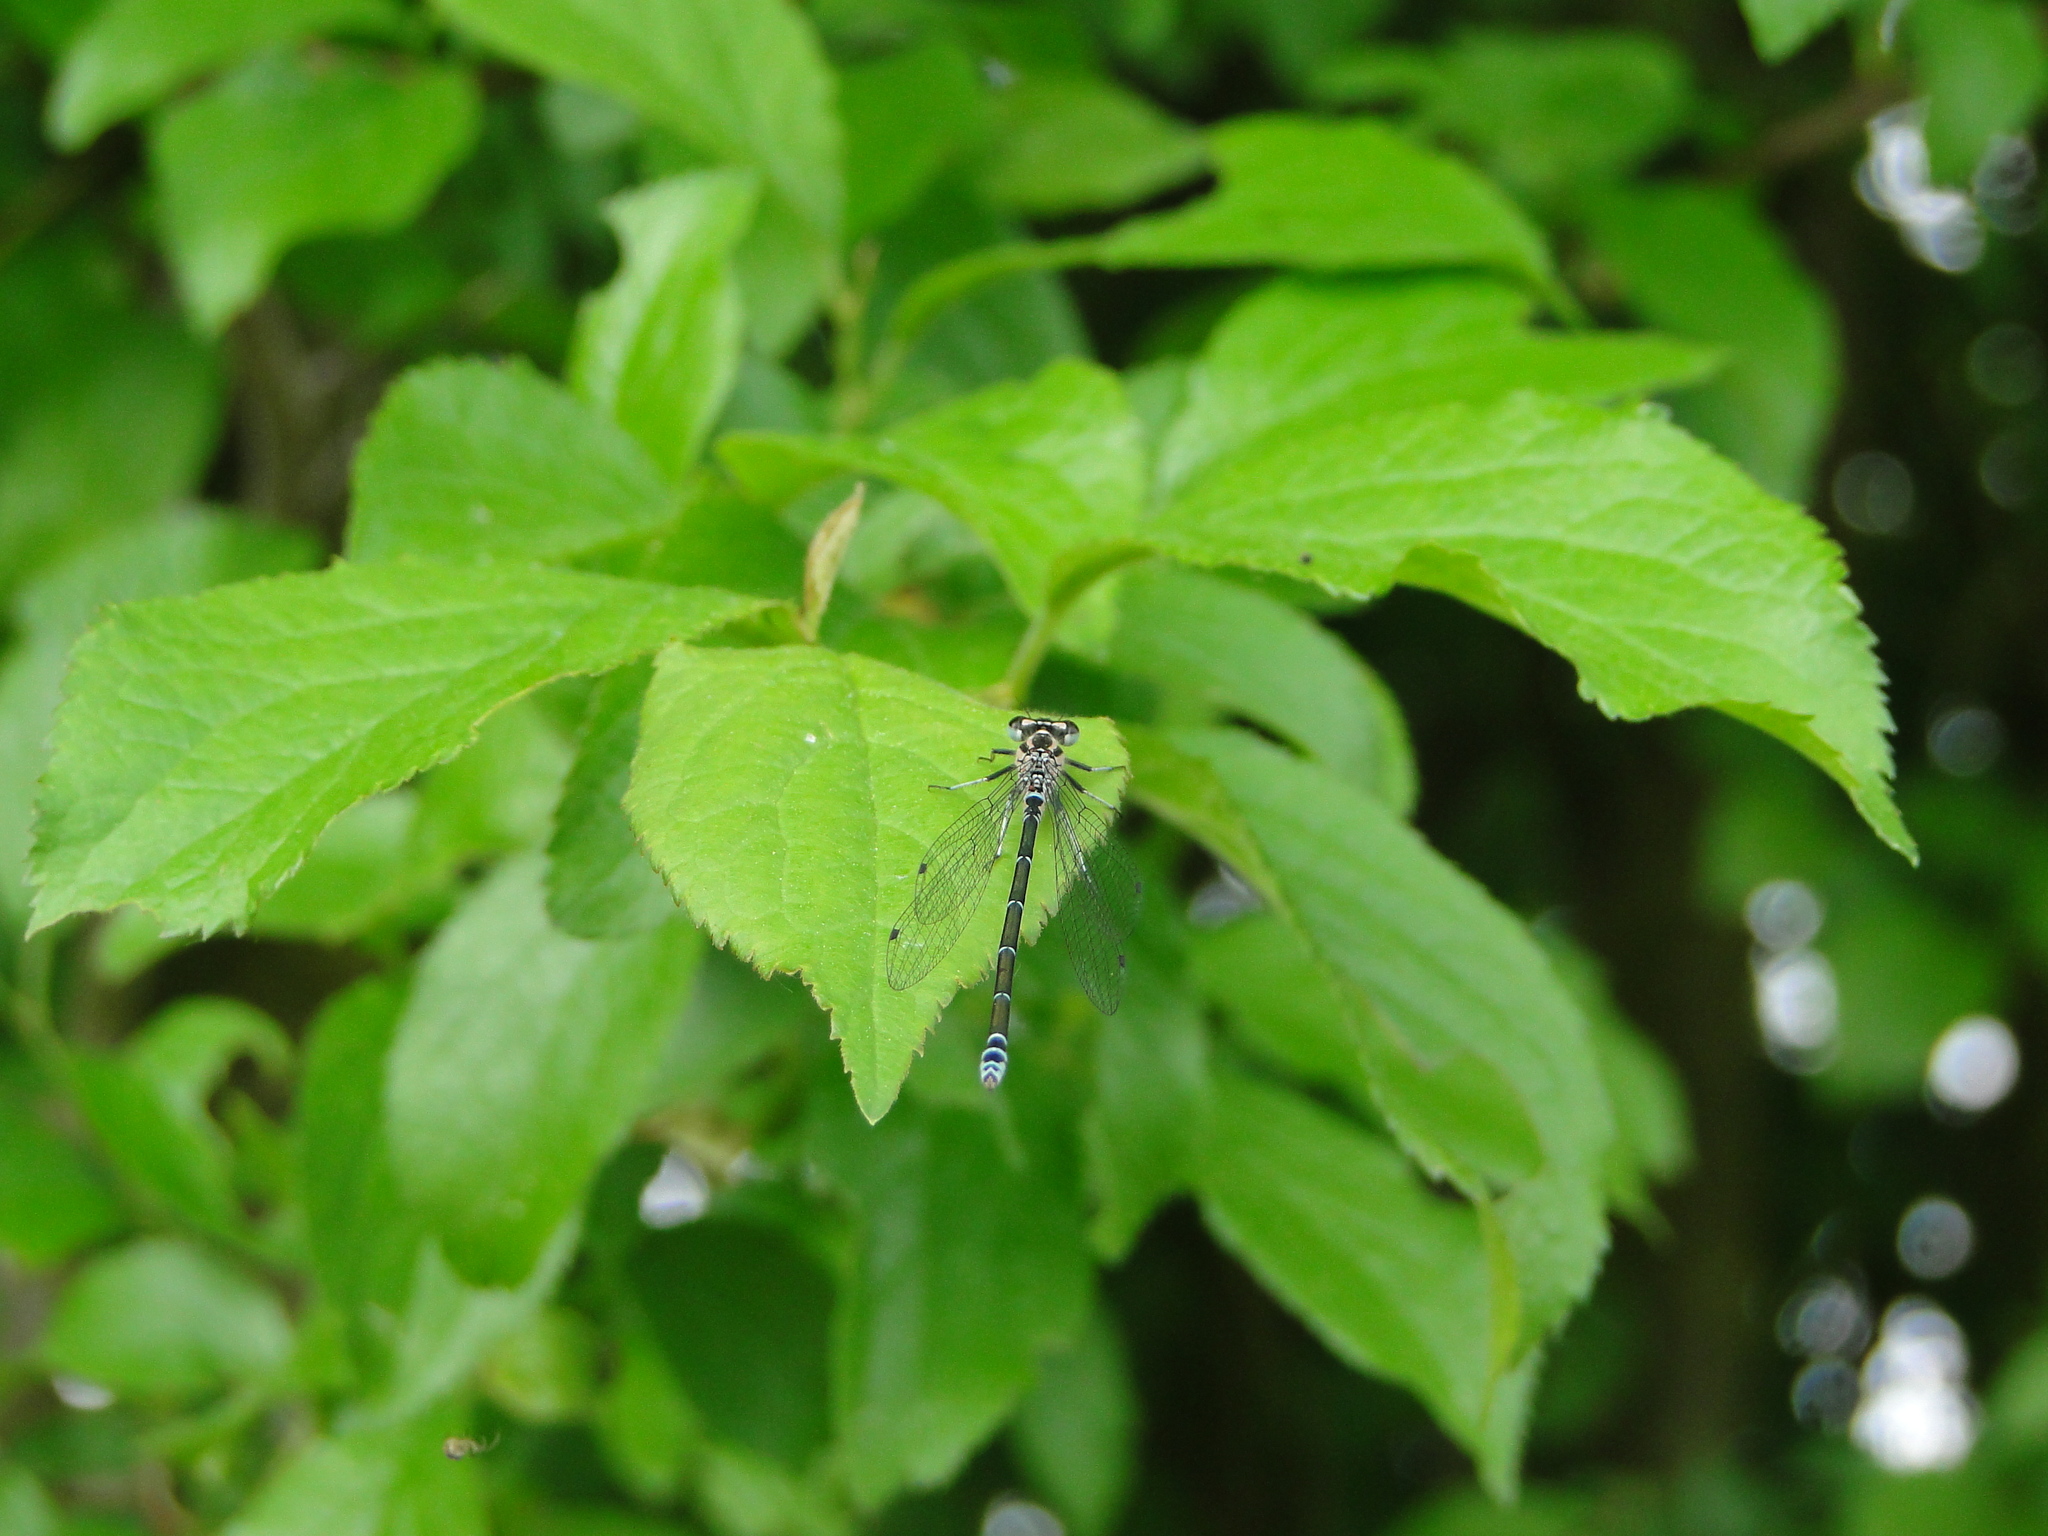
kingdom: Animalia
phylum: Arthropoda
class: Insecta
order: Odonata
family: Coenagrionidae
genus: Coenagrion
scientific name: Coenagrion puella
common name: Azure damselfly
